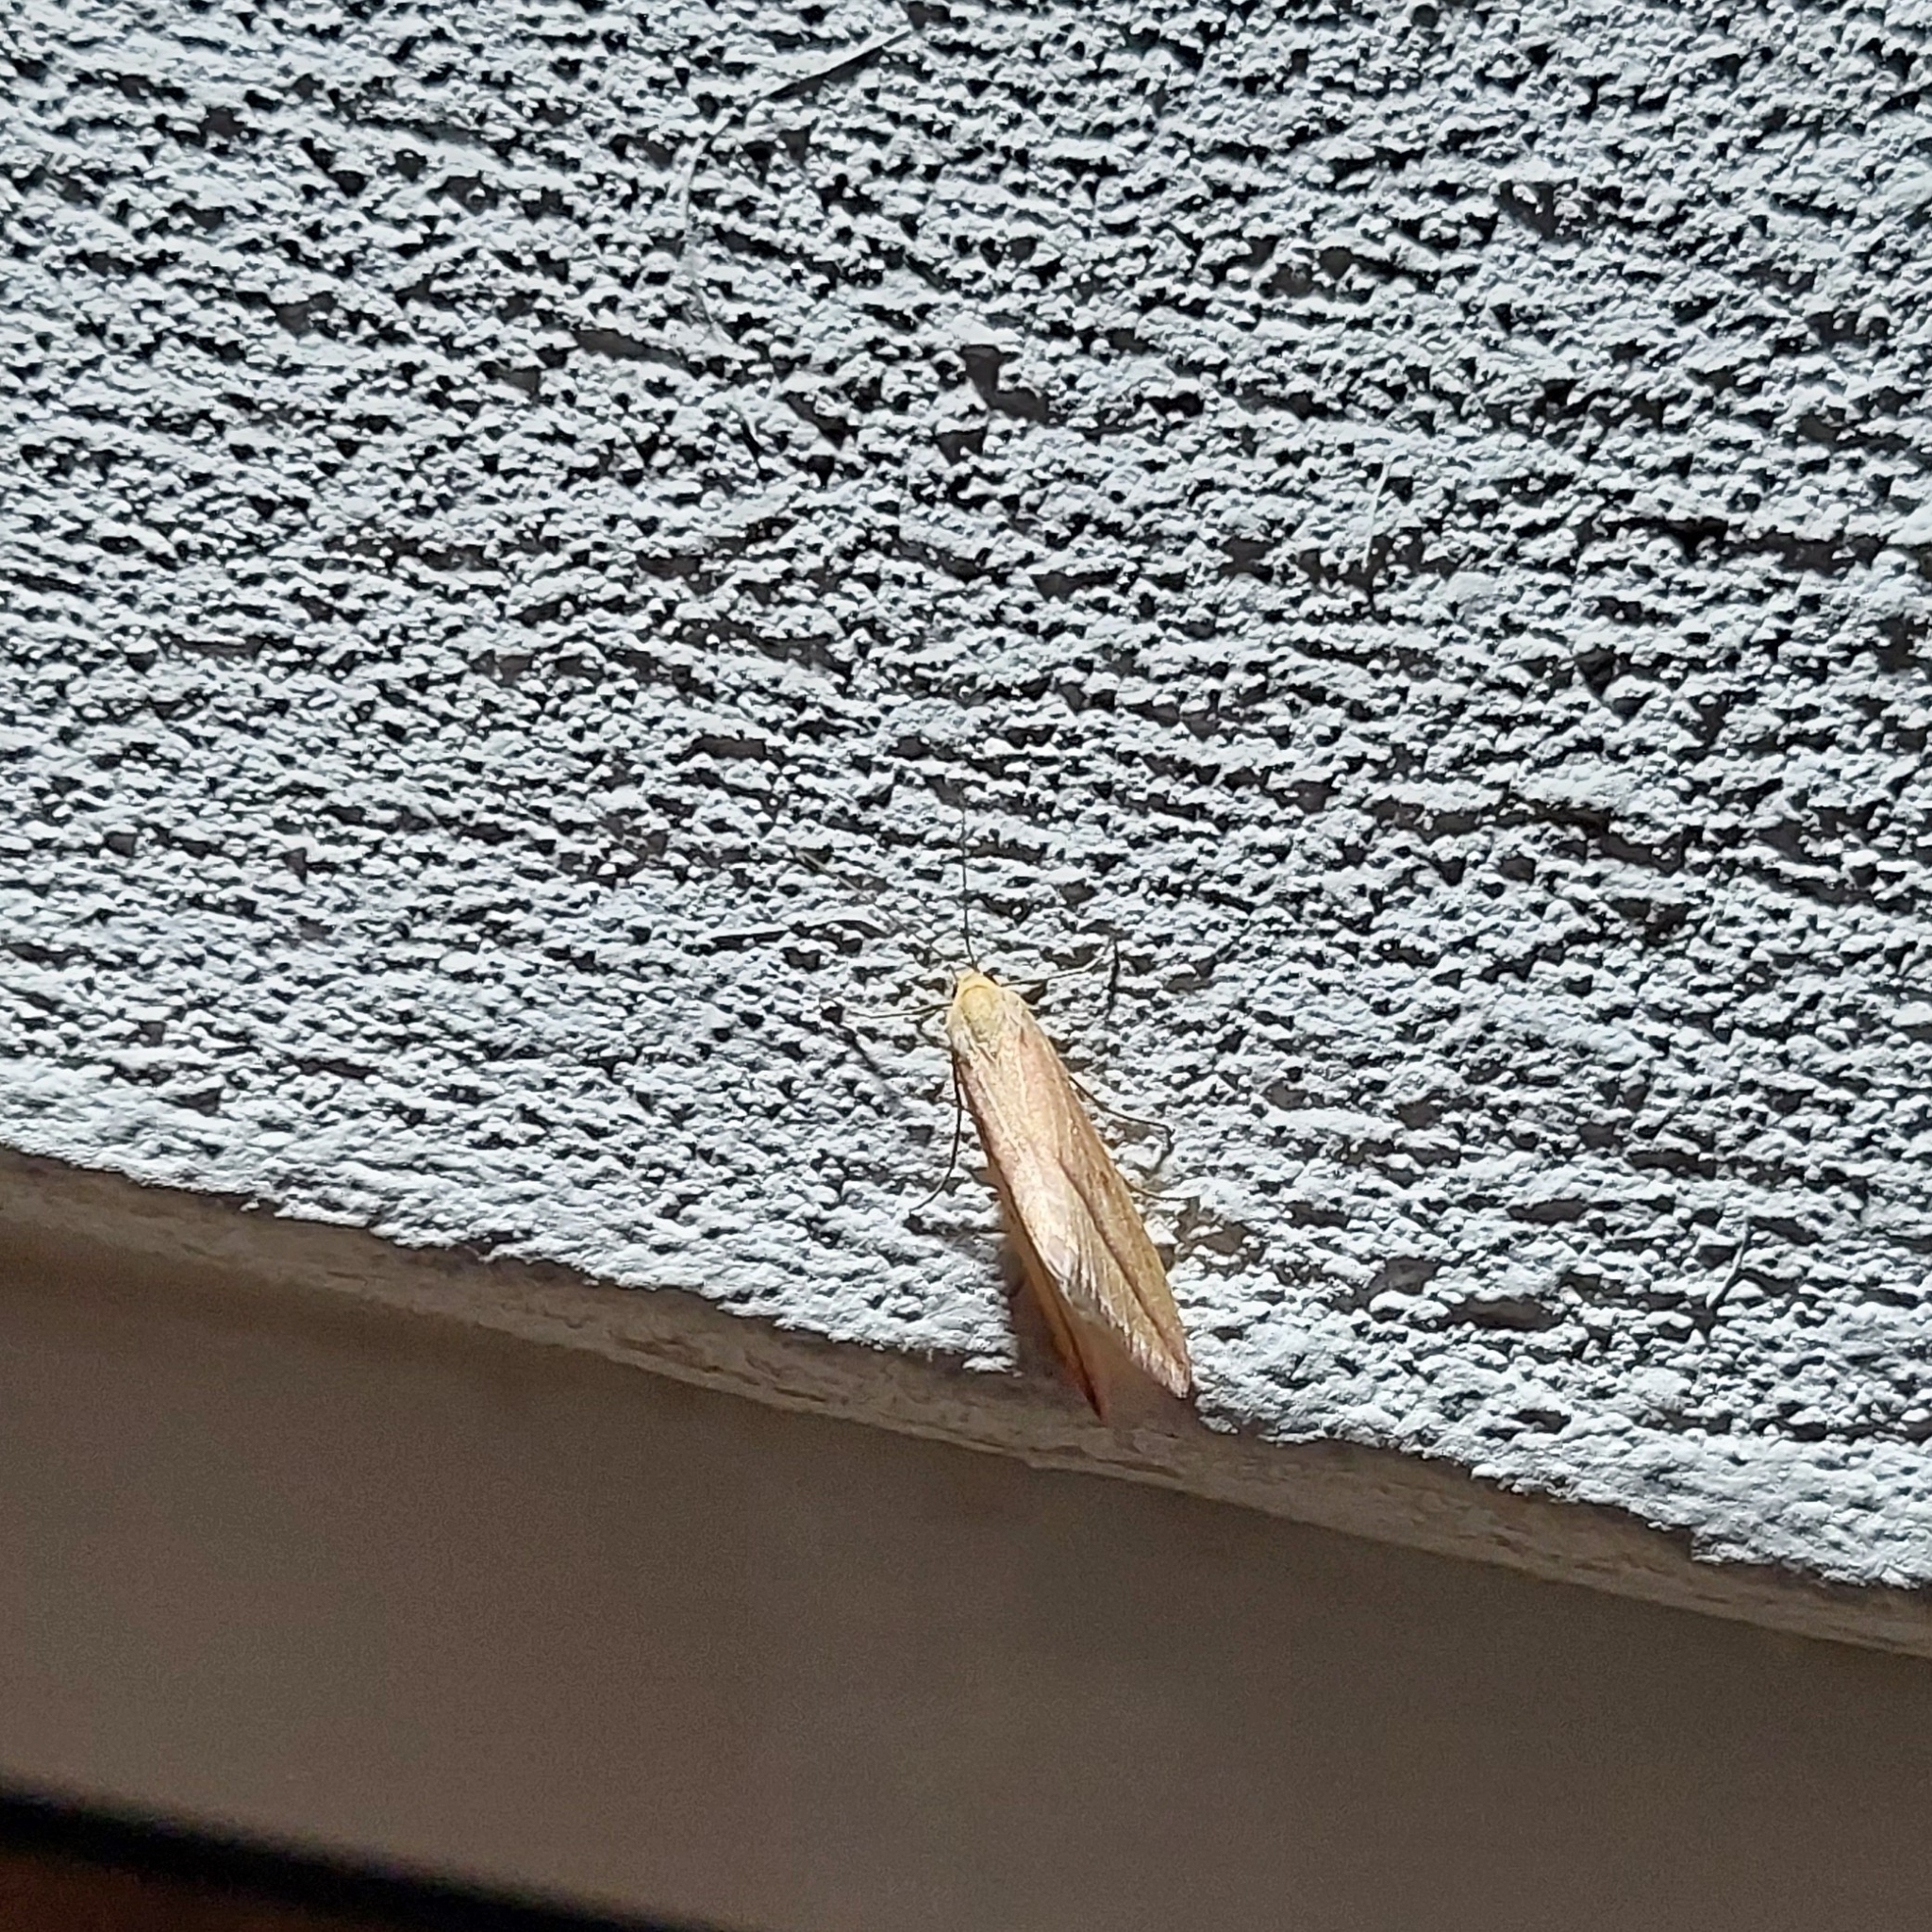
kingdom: Animalia
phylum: Arthropoda
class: Insecta
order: Lepidoptera
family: Geometridae
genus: Rhodometra
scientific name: Rhodometra sacraria
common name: Vestal
